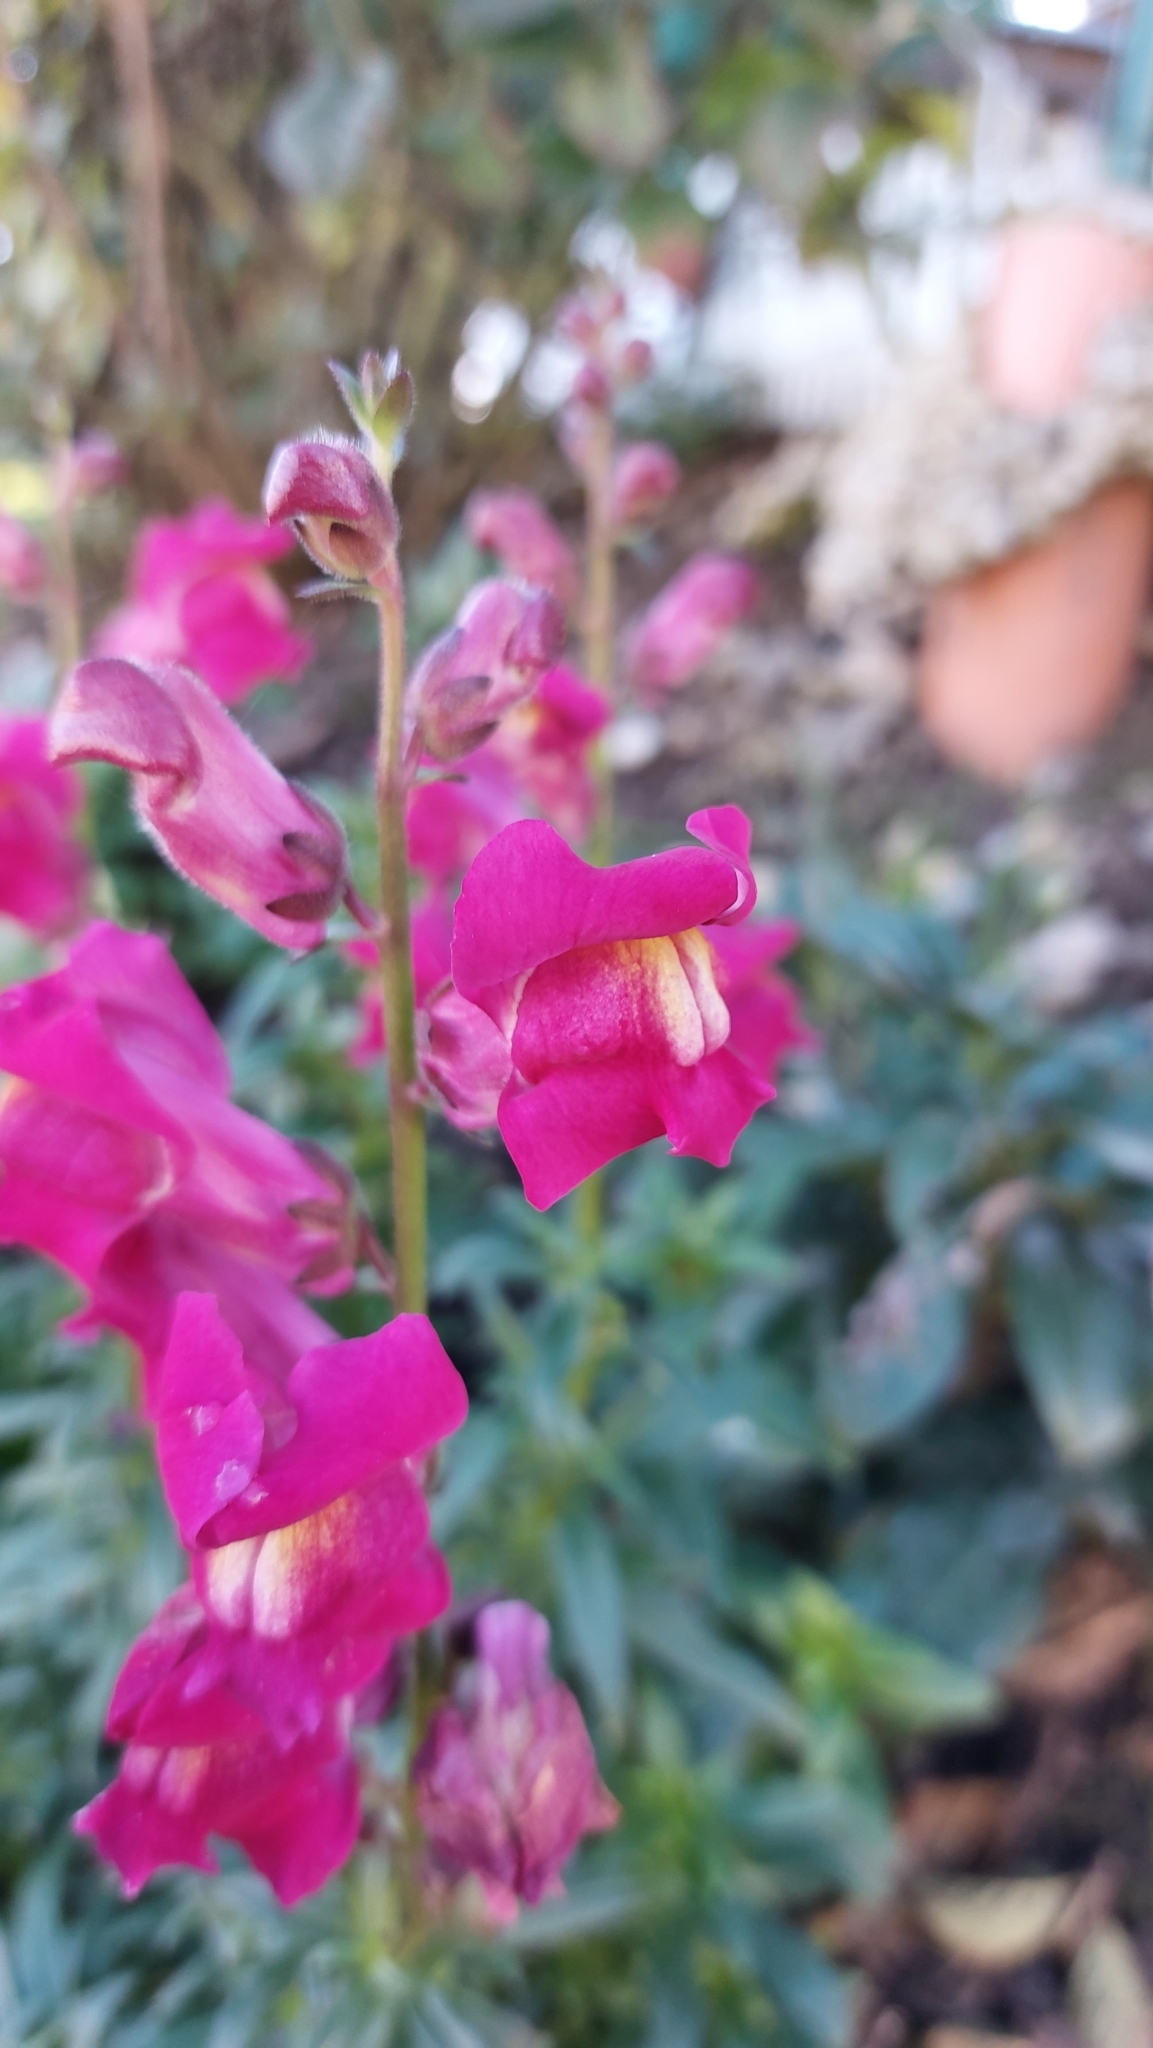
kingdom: Plantae
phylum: Tracheophyta
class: Magnoliopsida
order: Lamiales
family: Plantaginaceae
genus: Antirrhinum
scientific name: Antirrhinum majus
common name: Snapdragon
